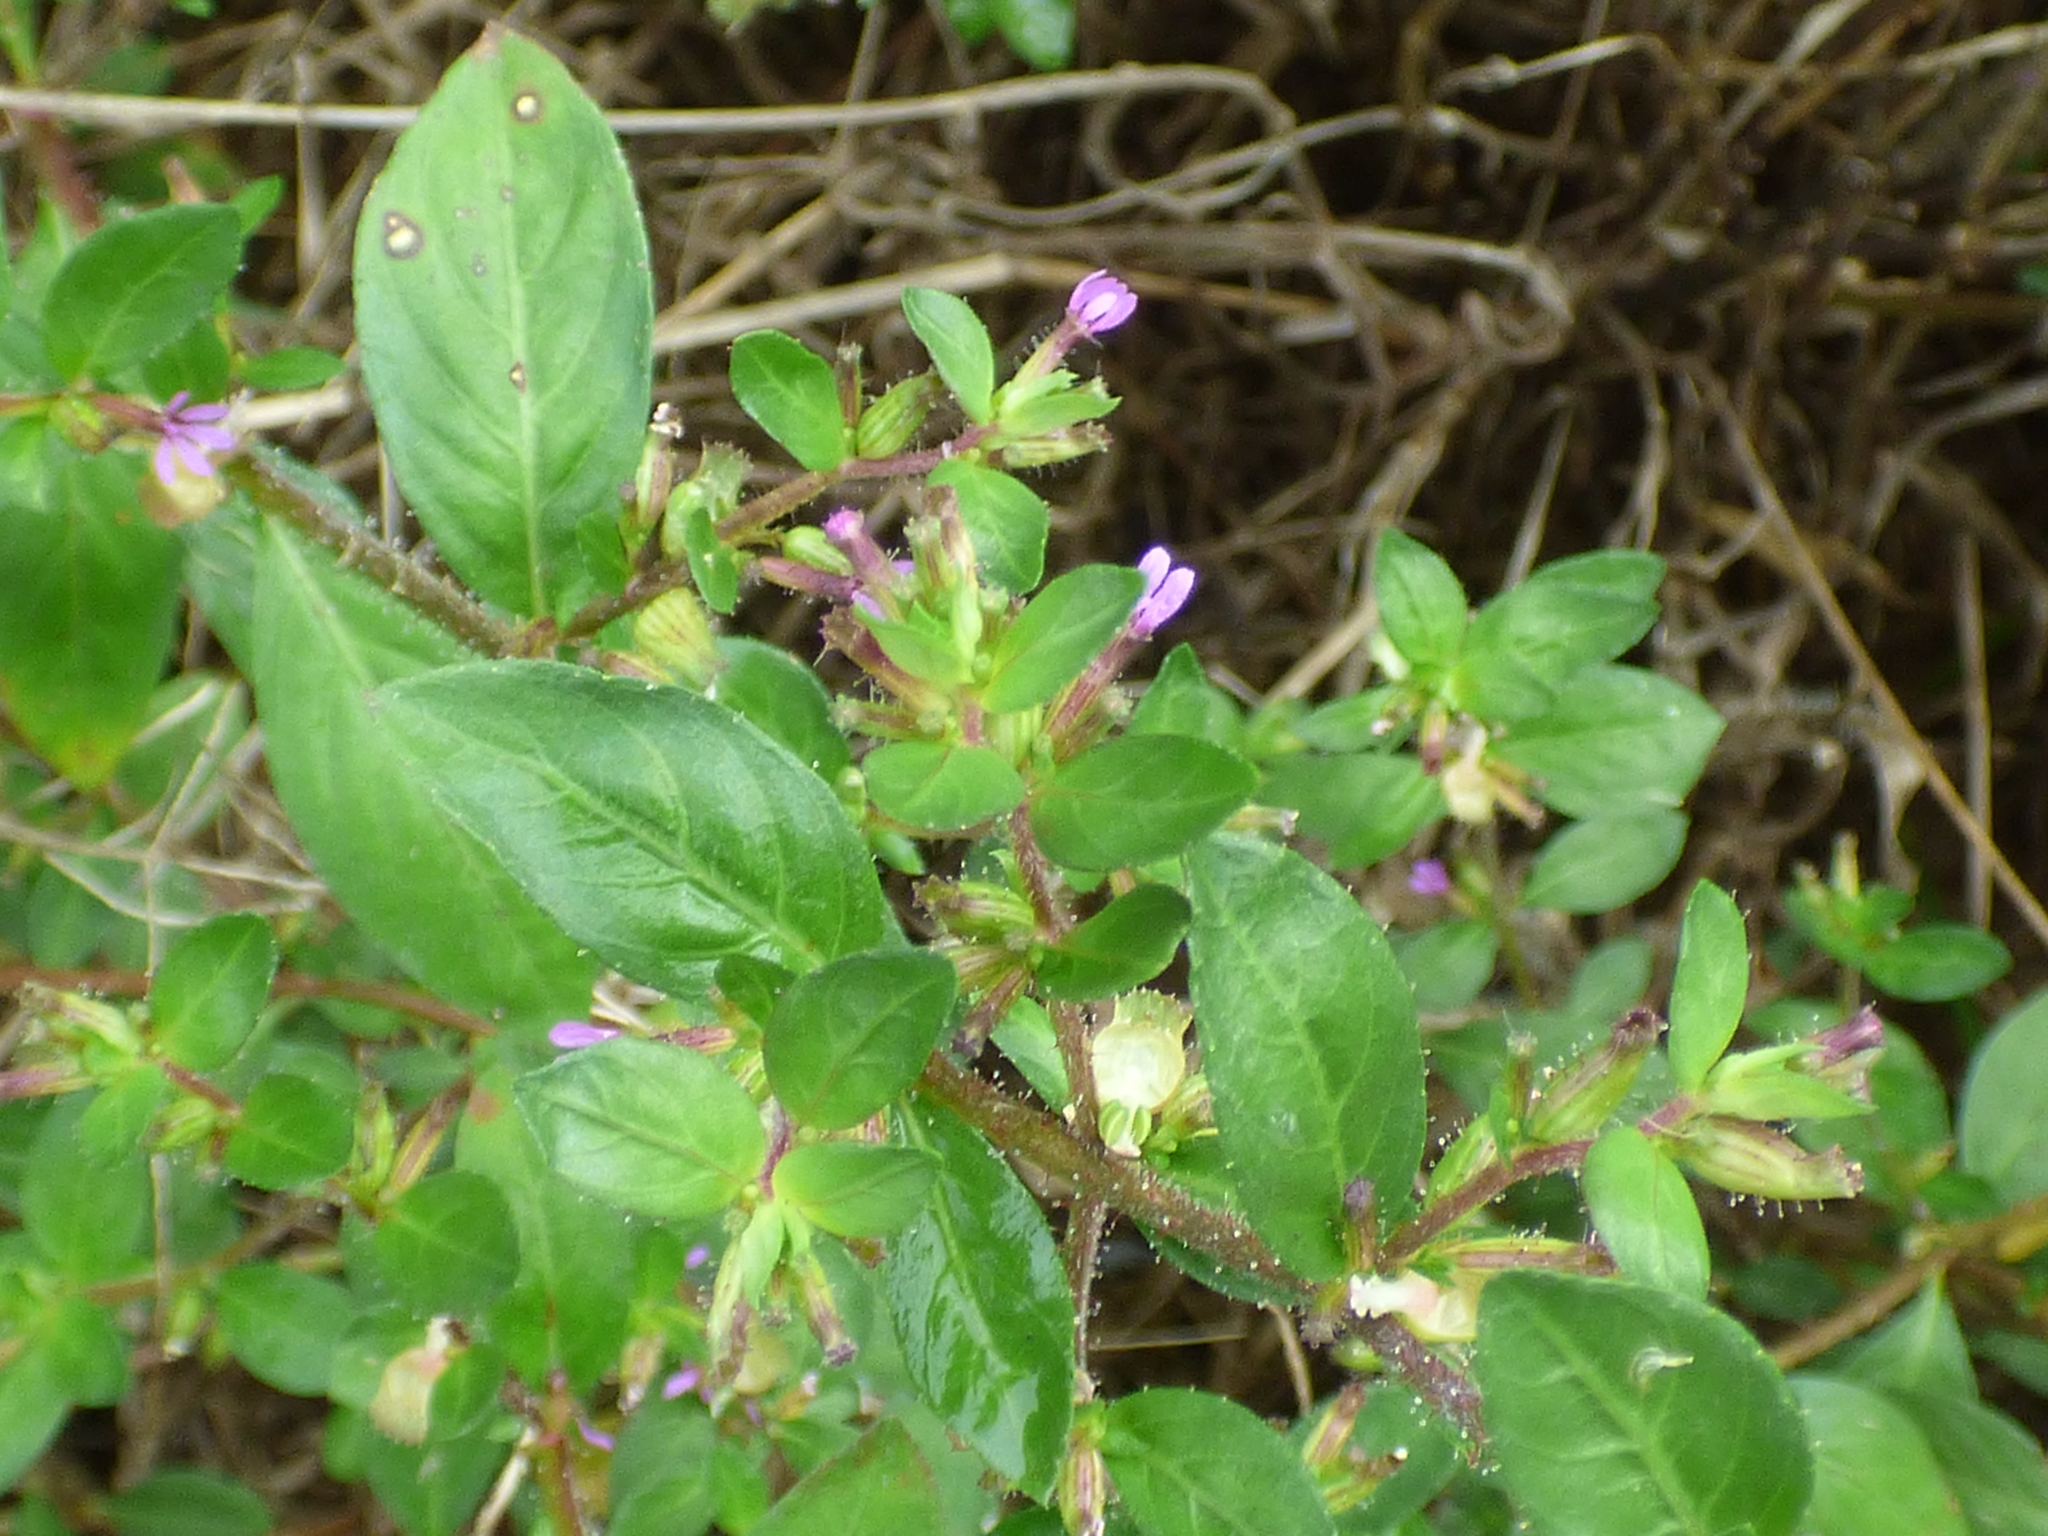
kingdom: Plantae
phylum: Tracheophyta
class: Magnoliopsida
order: Myrtales
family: Lythraceae
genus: Cuphea
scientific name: Cuphea carthagenensis
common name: Colombian waxweed
